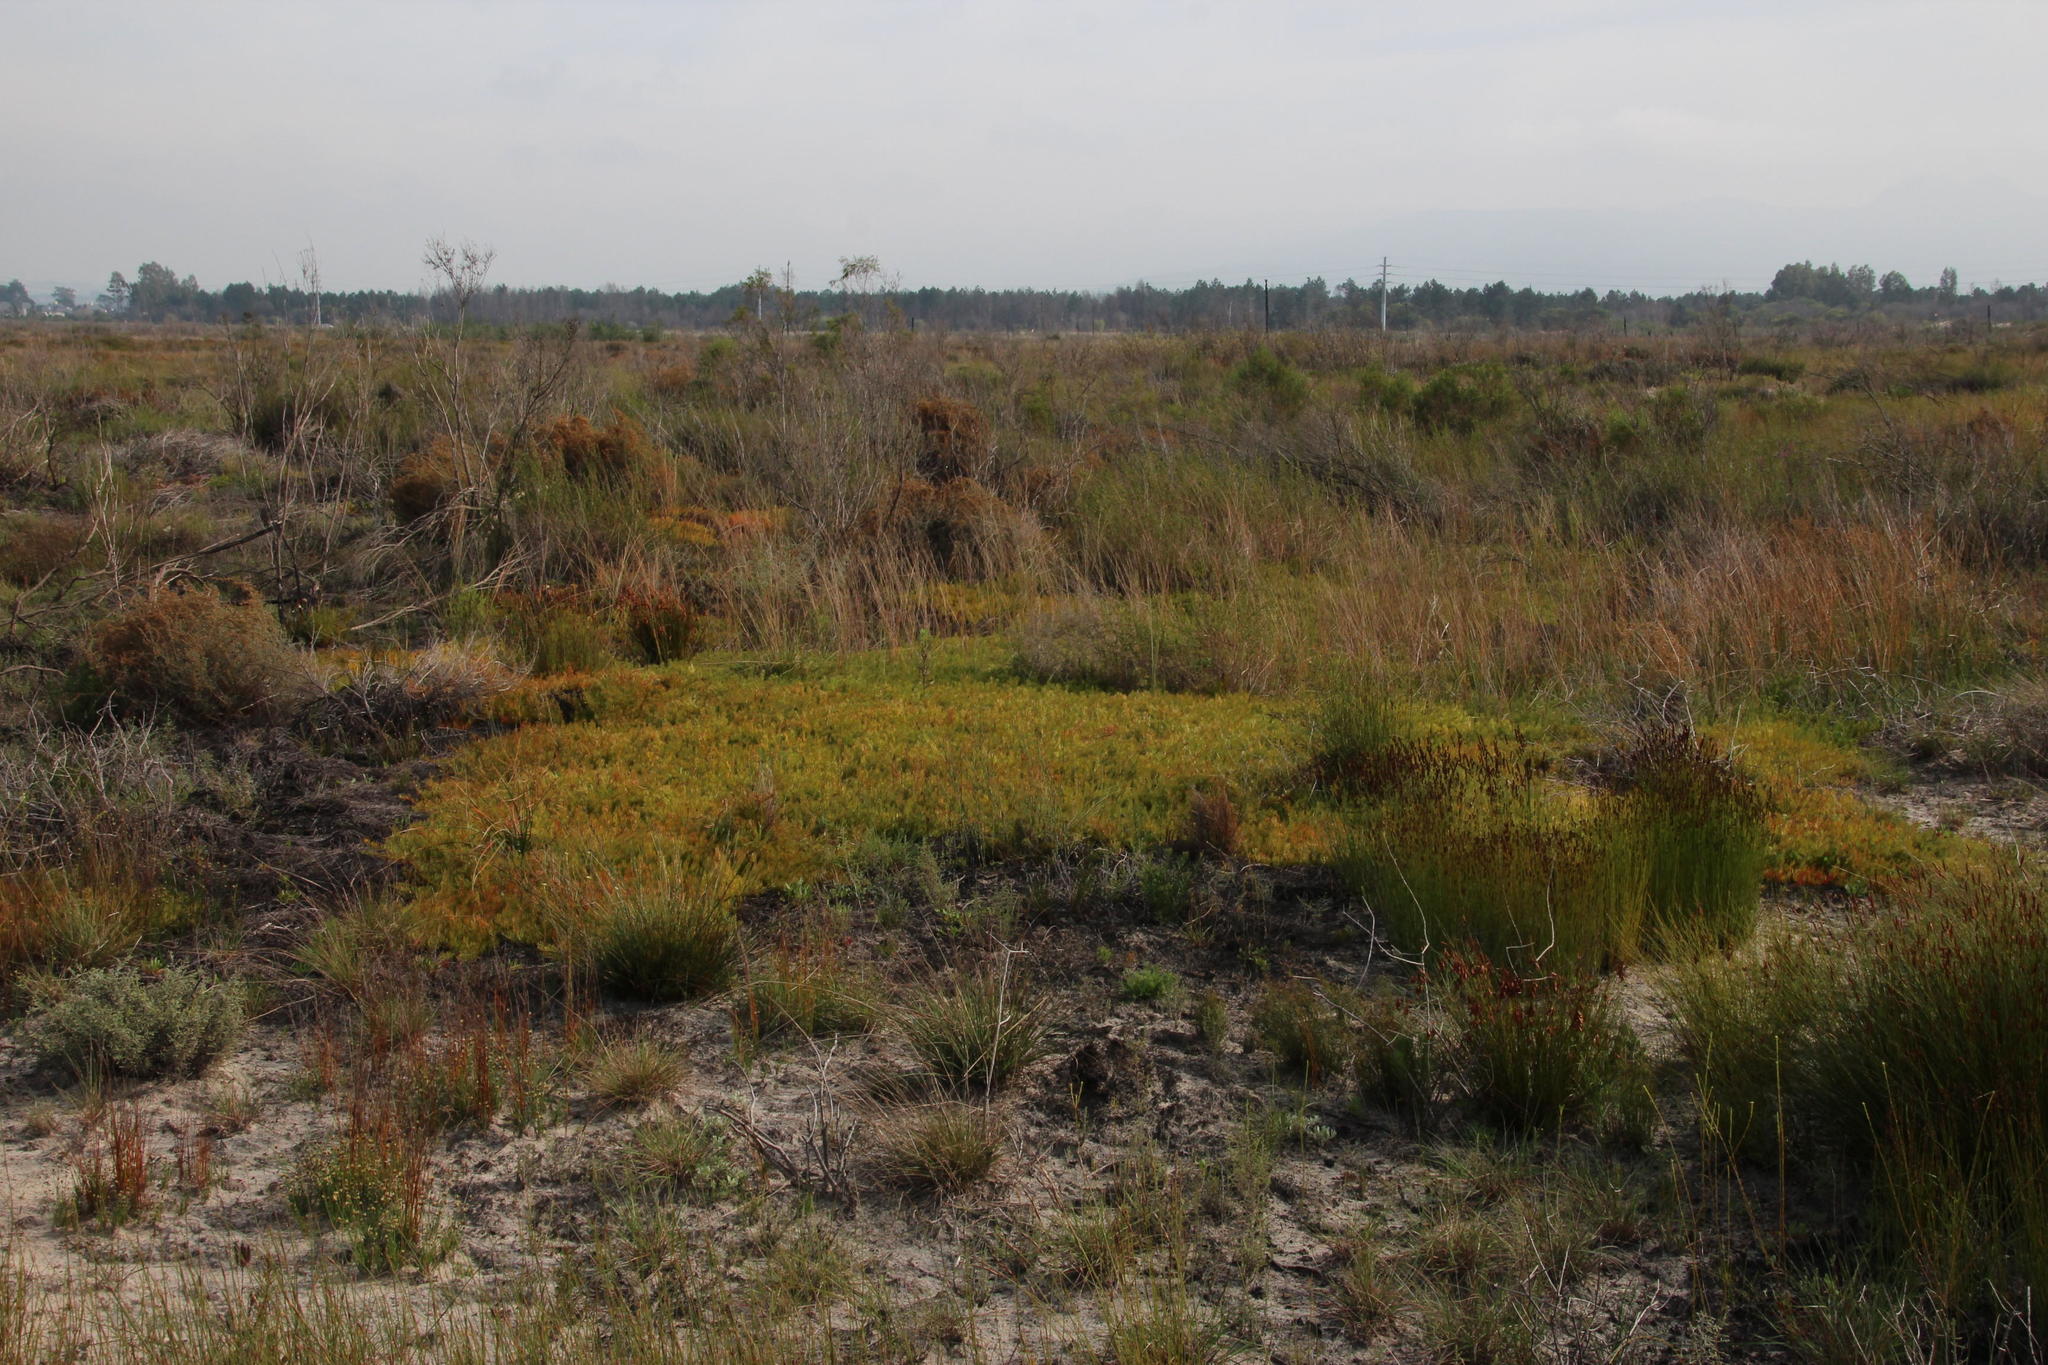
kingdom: Plantae
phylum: Tracheophyta
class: Magnoliopsida
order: Proteales
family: Proteaceae
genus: Diastella
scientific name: Diastella buekii
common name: Franschhoek silkypuff
